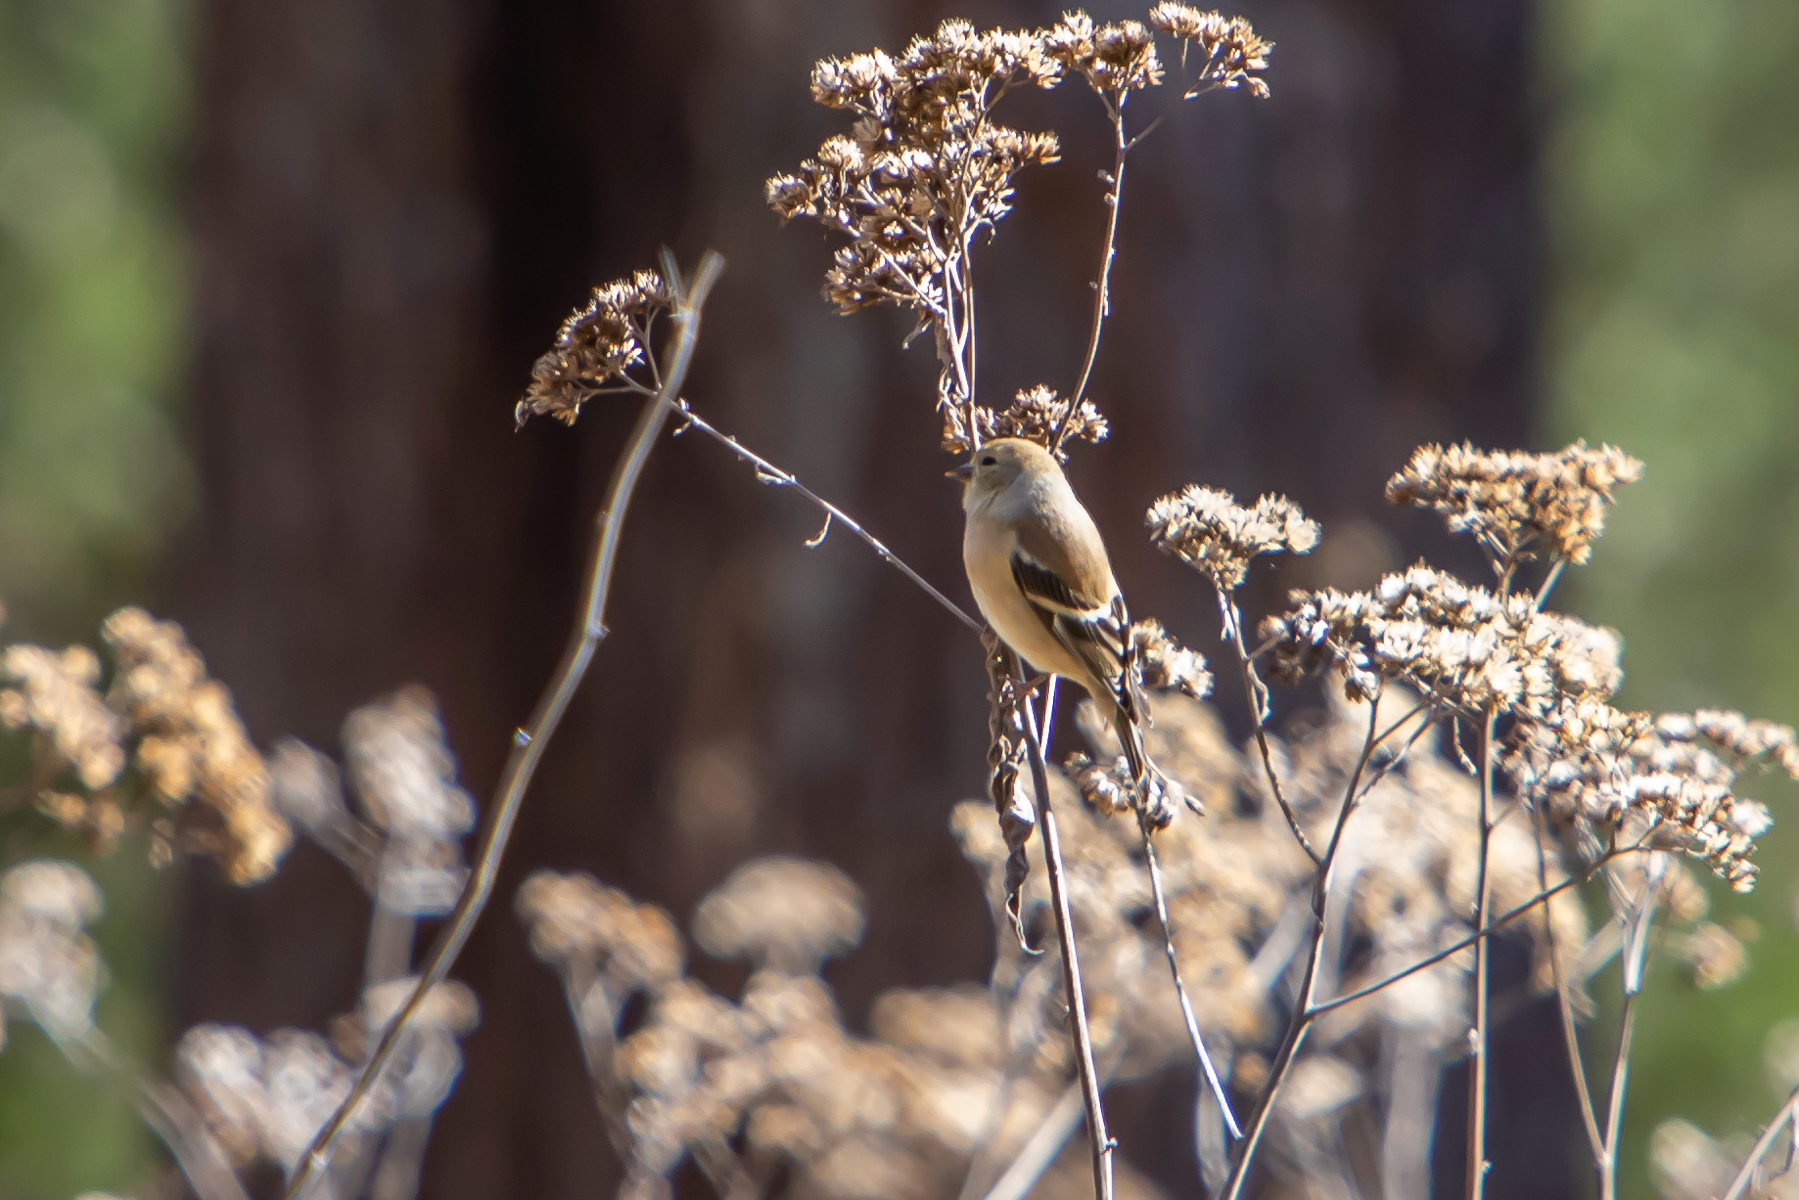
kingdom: Animalia
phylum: Chordata
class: Aves
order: Passeriformes
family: Fringillidae
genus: Spinus
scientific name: Spinus tristis
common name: American goldfinch
